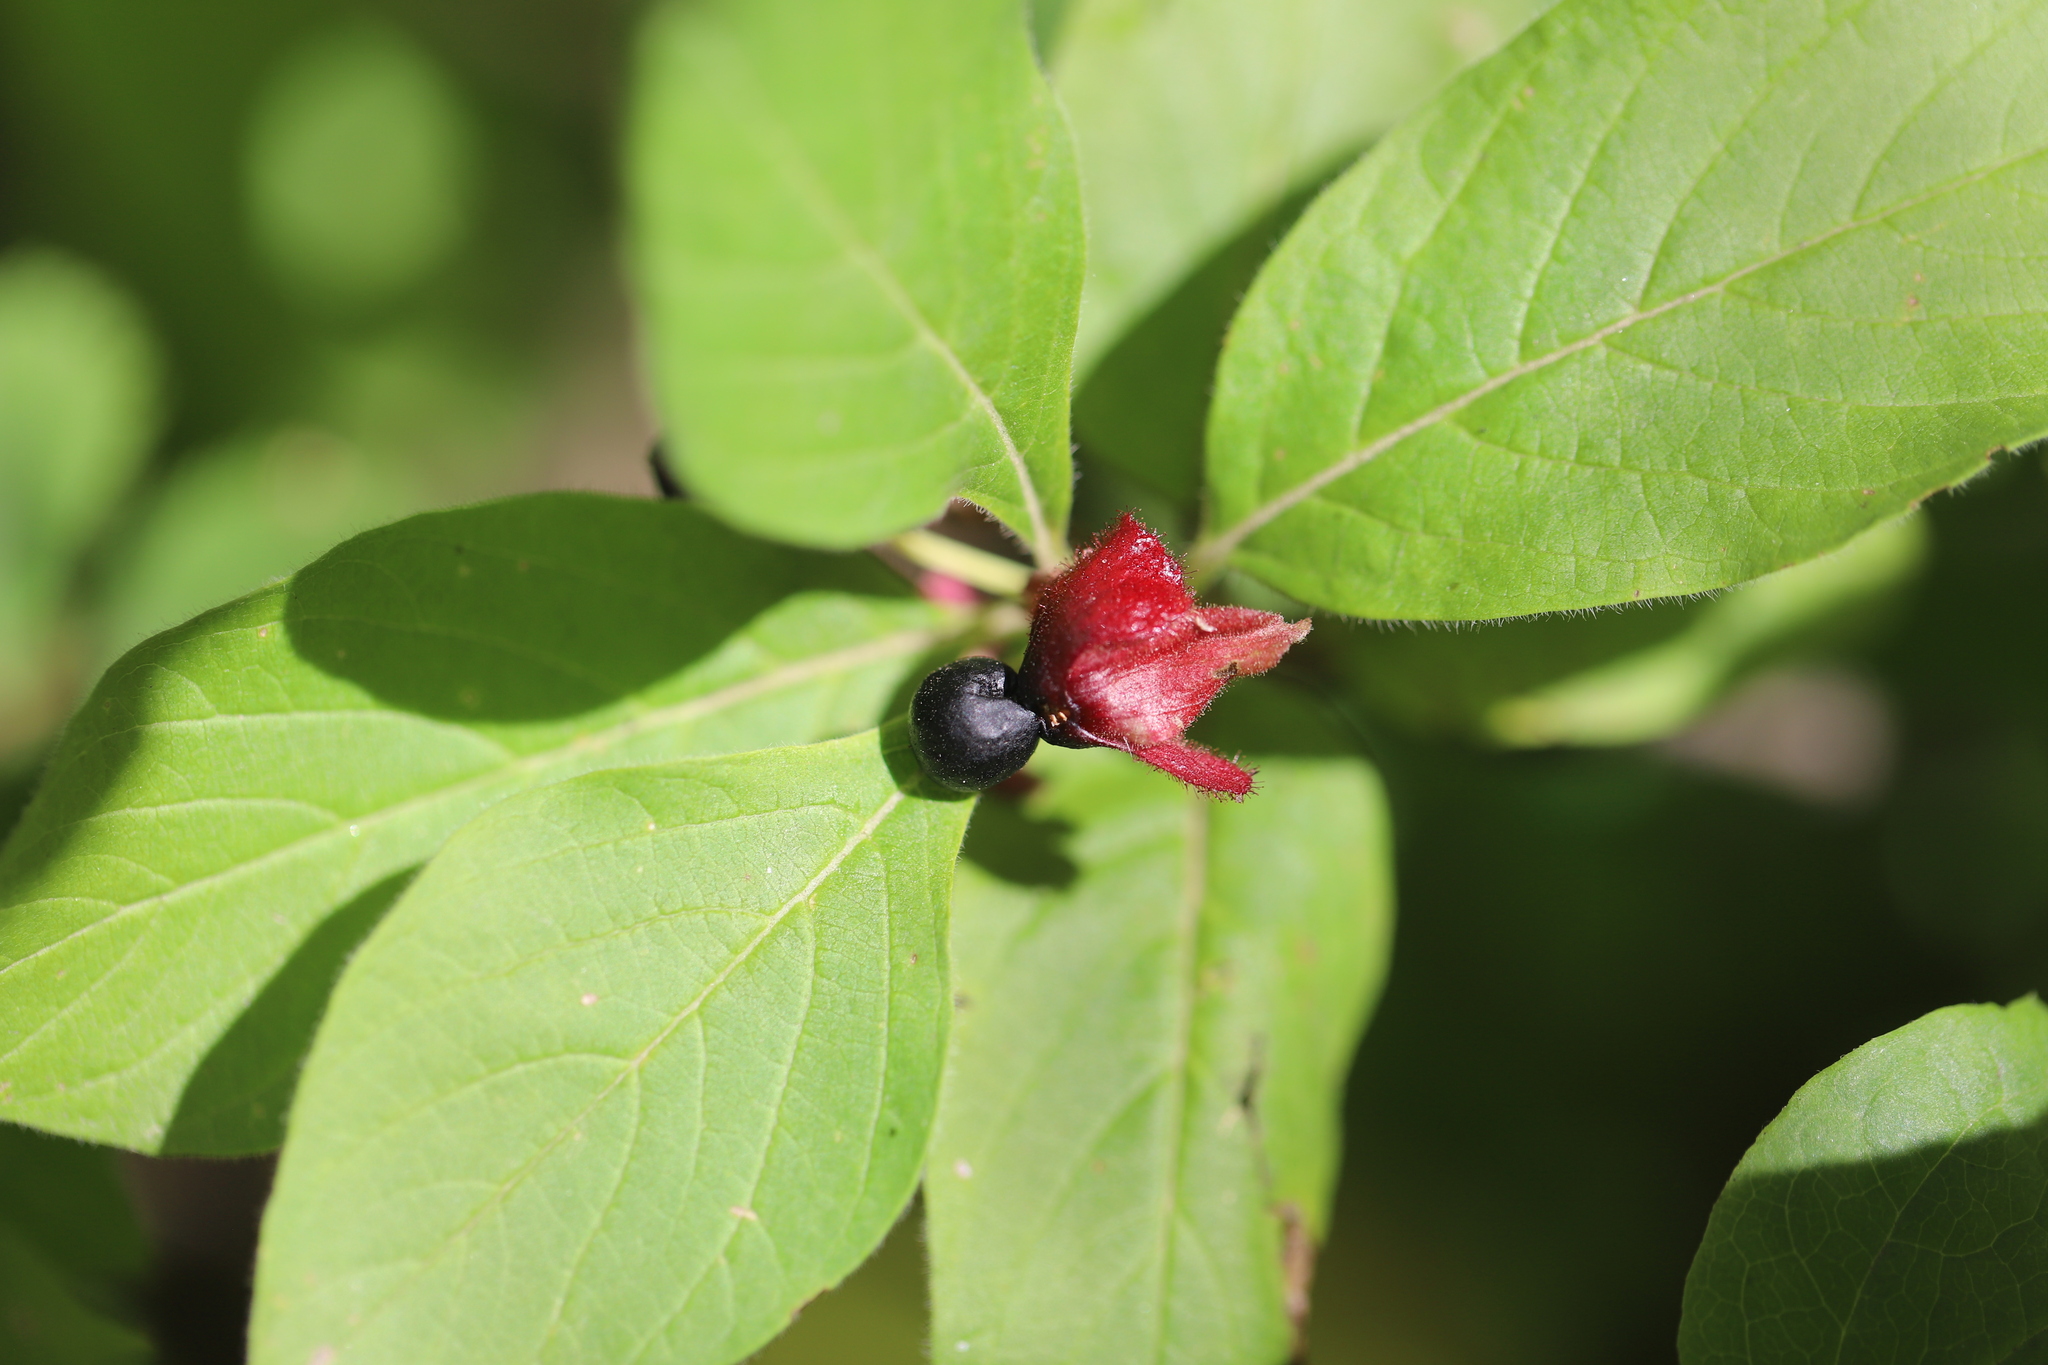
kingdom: Plantae
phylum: Tracheophyta
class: Magnoliopsida
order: Dipsacales
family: Caprifoliaceae
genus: Lonicera
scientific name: Lonicera involucrata
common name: Californian honeysuckle
